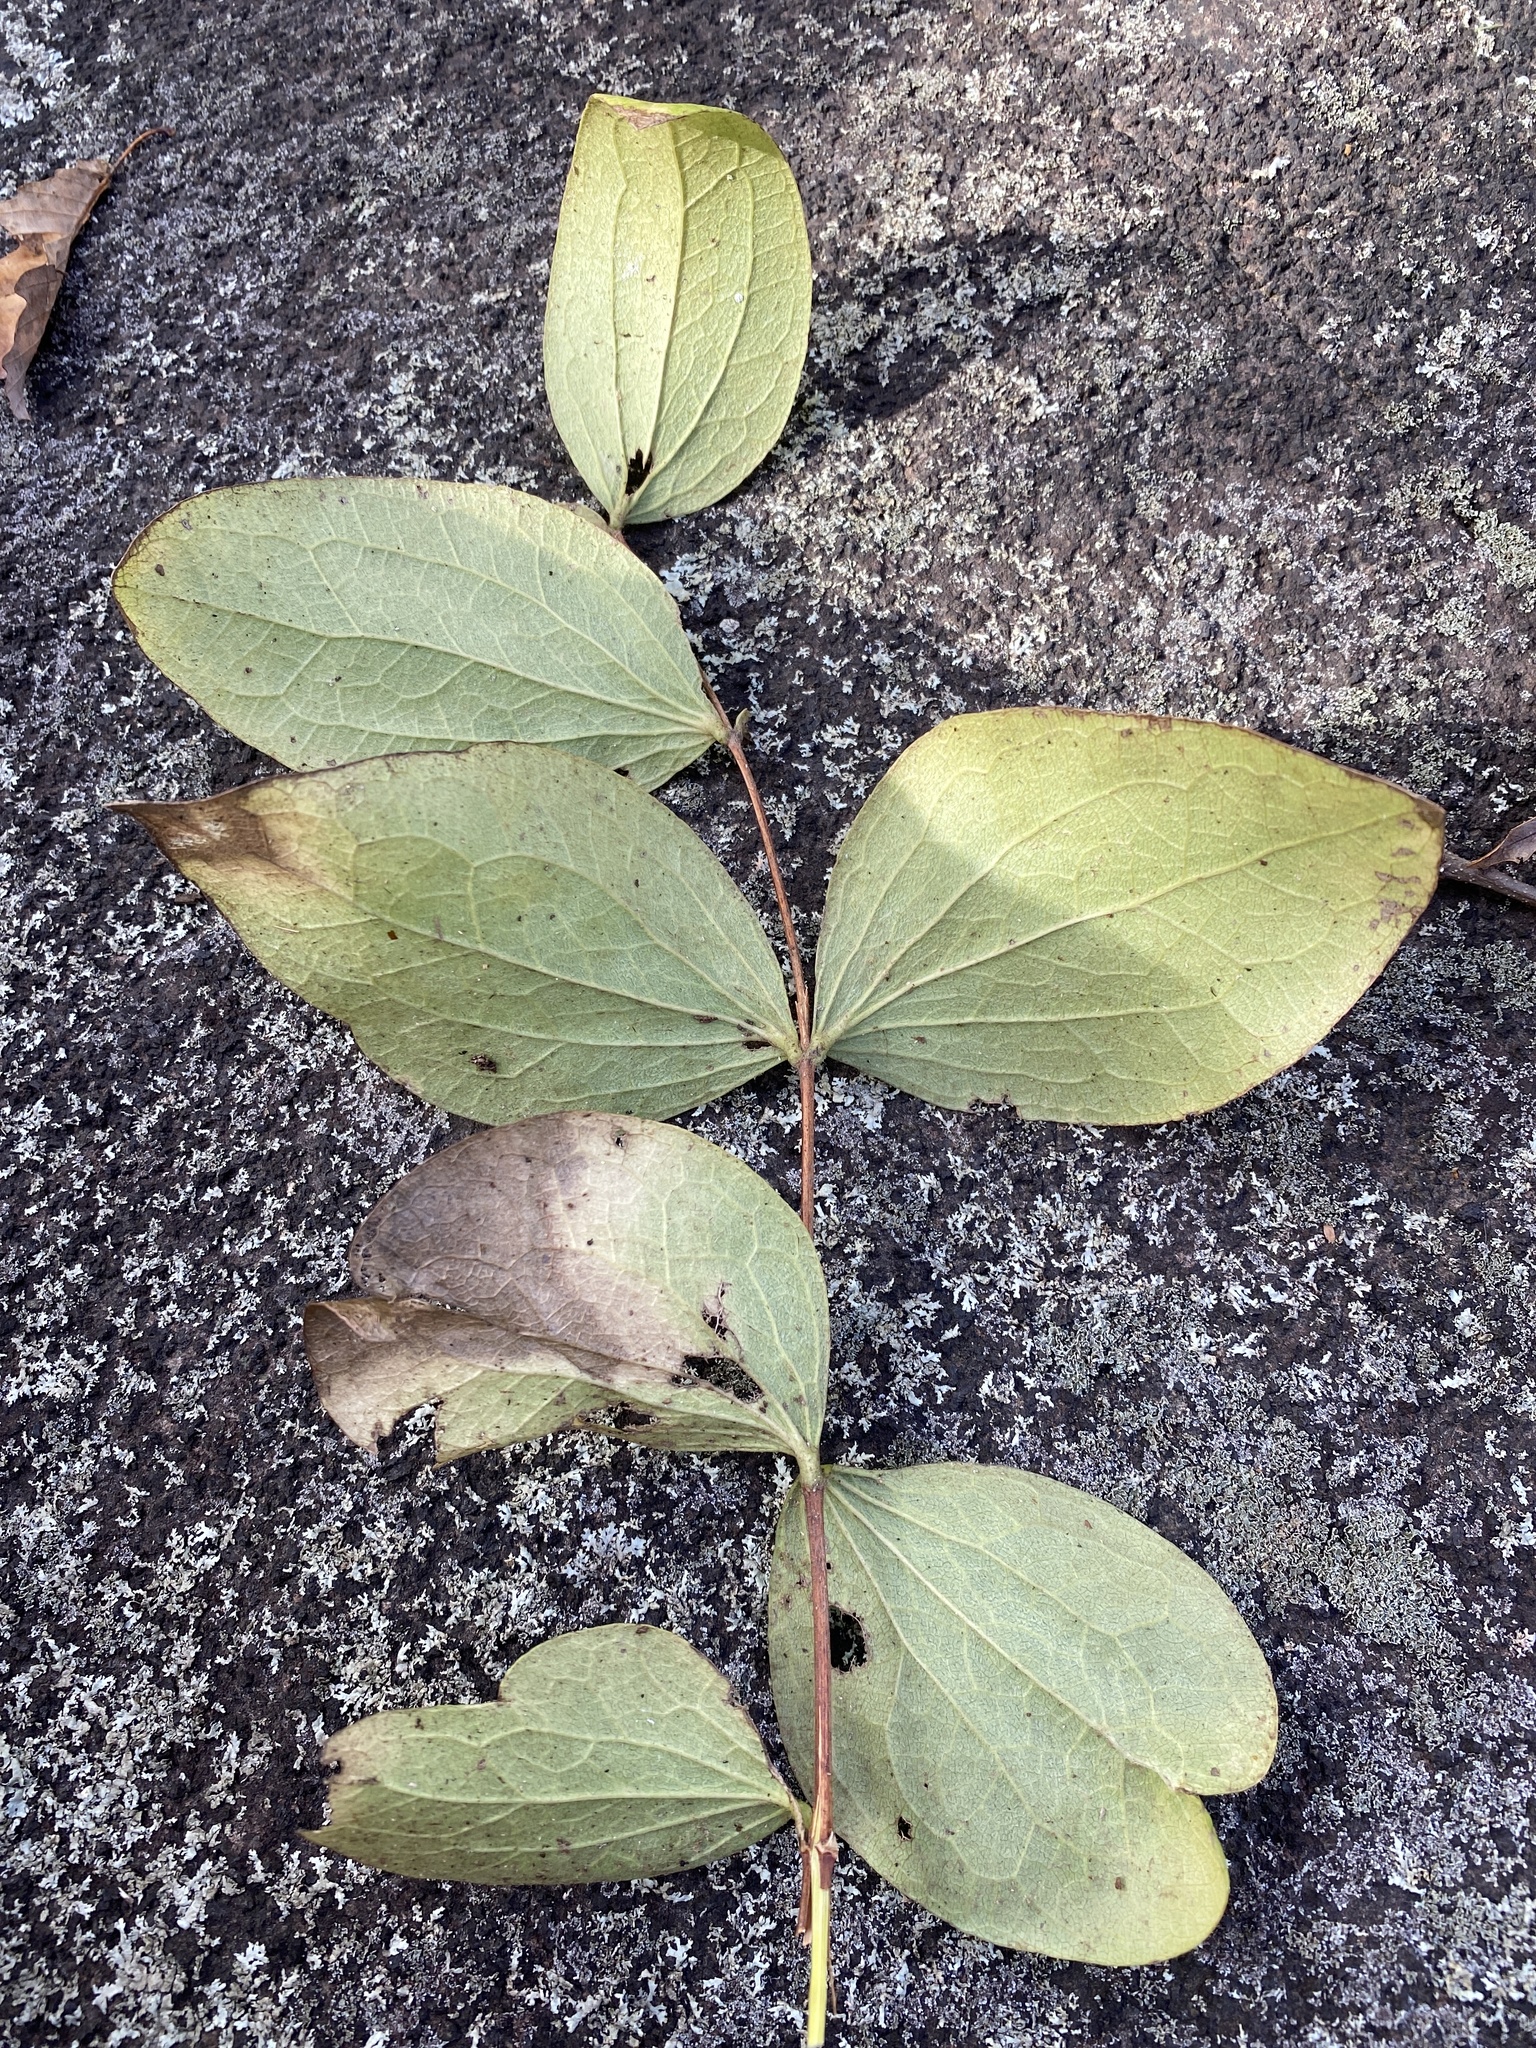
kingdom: Plantae
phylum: Tracheophyta
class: Magnoliopsida
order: Ranunculales
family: Ranunculaceae
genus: Clematis
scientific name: Clematis ochroleuca
